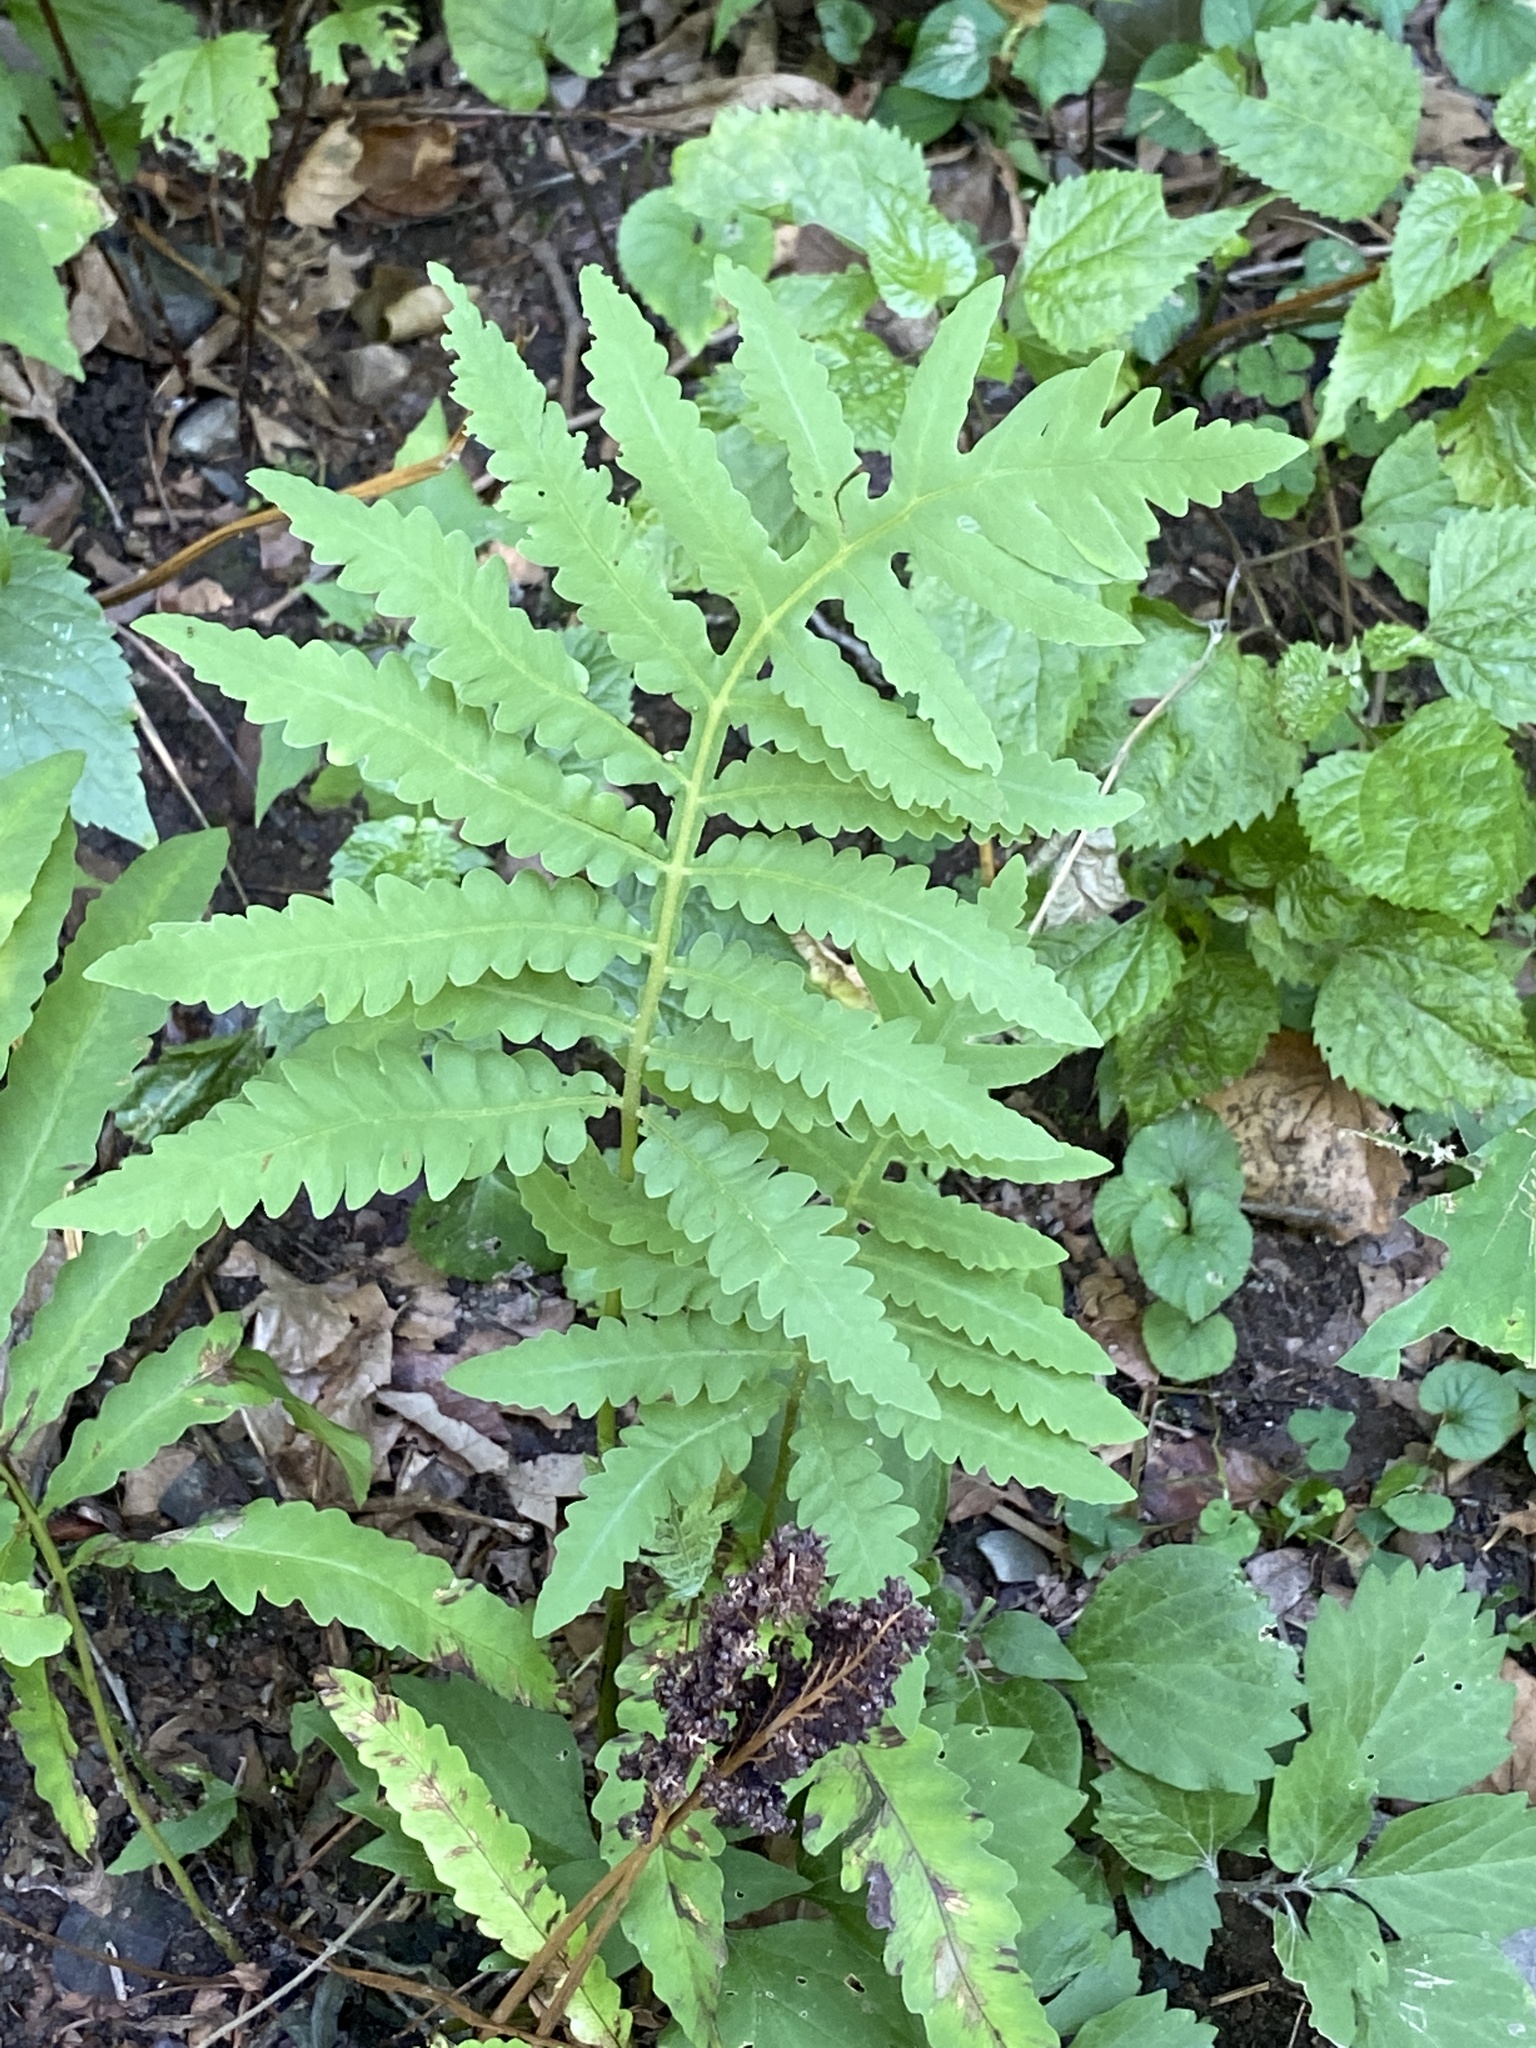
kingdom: Plantae
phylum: Tracheophyta
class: Polypodiopsida
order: Polypodiales
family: Onocleaceae
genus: Onoclea
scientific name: Onoclea sensibilis
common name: Sensitive fern
